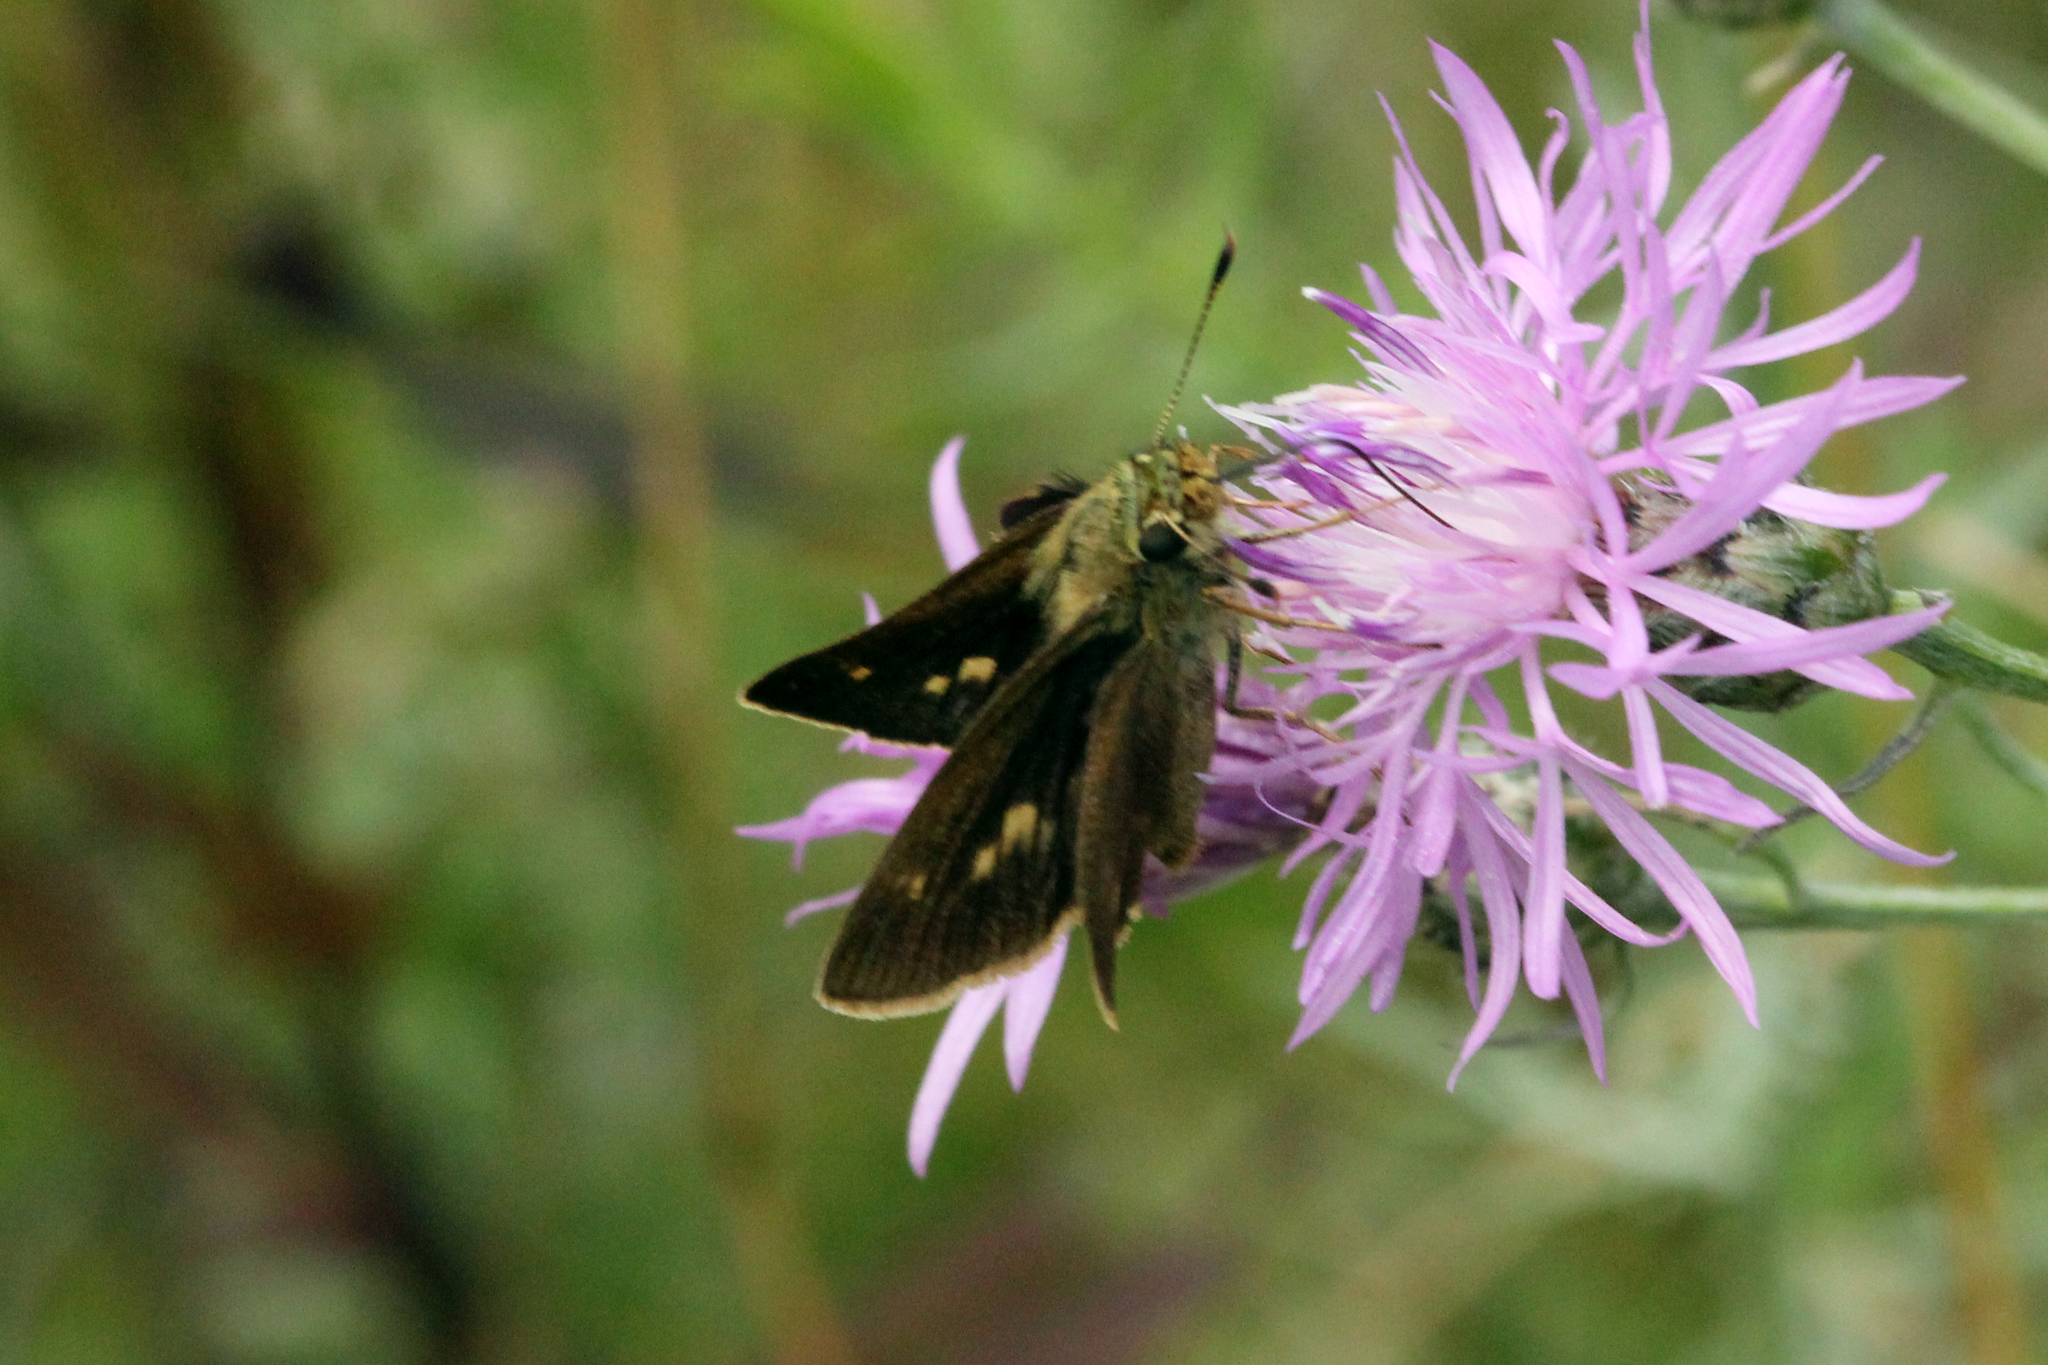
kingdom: Animalia
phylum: Arthropoda
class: Insecta
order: Lepidoptera
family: Hesperiidae
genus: Polites
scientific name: Polites egeremet
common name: Northern broken-dash
